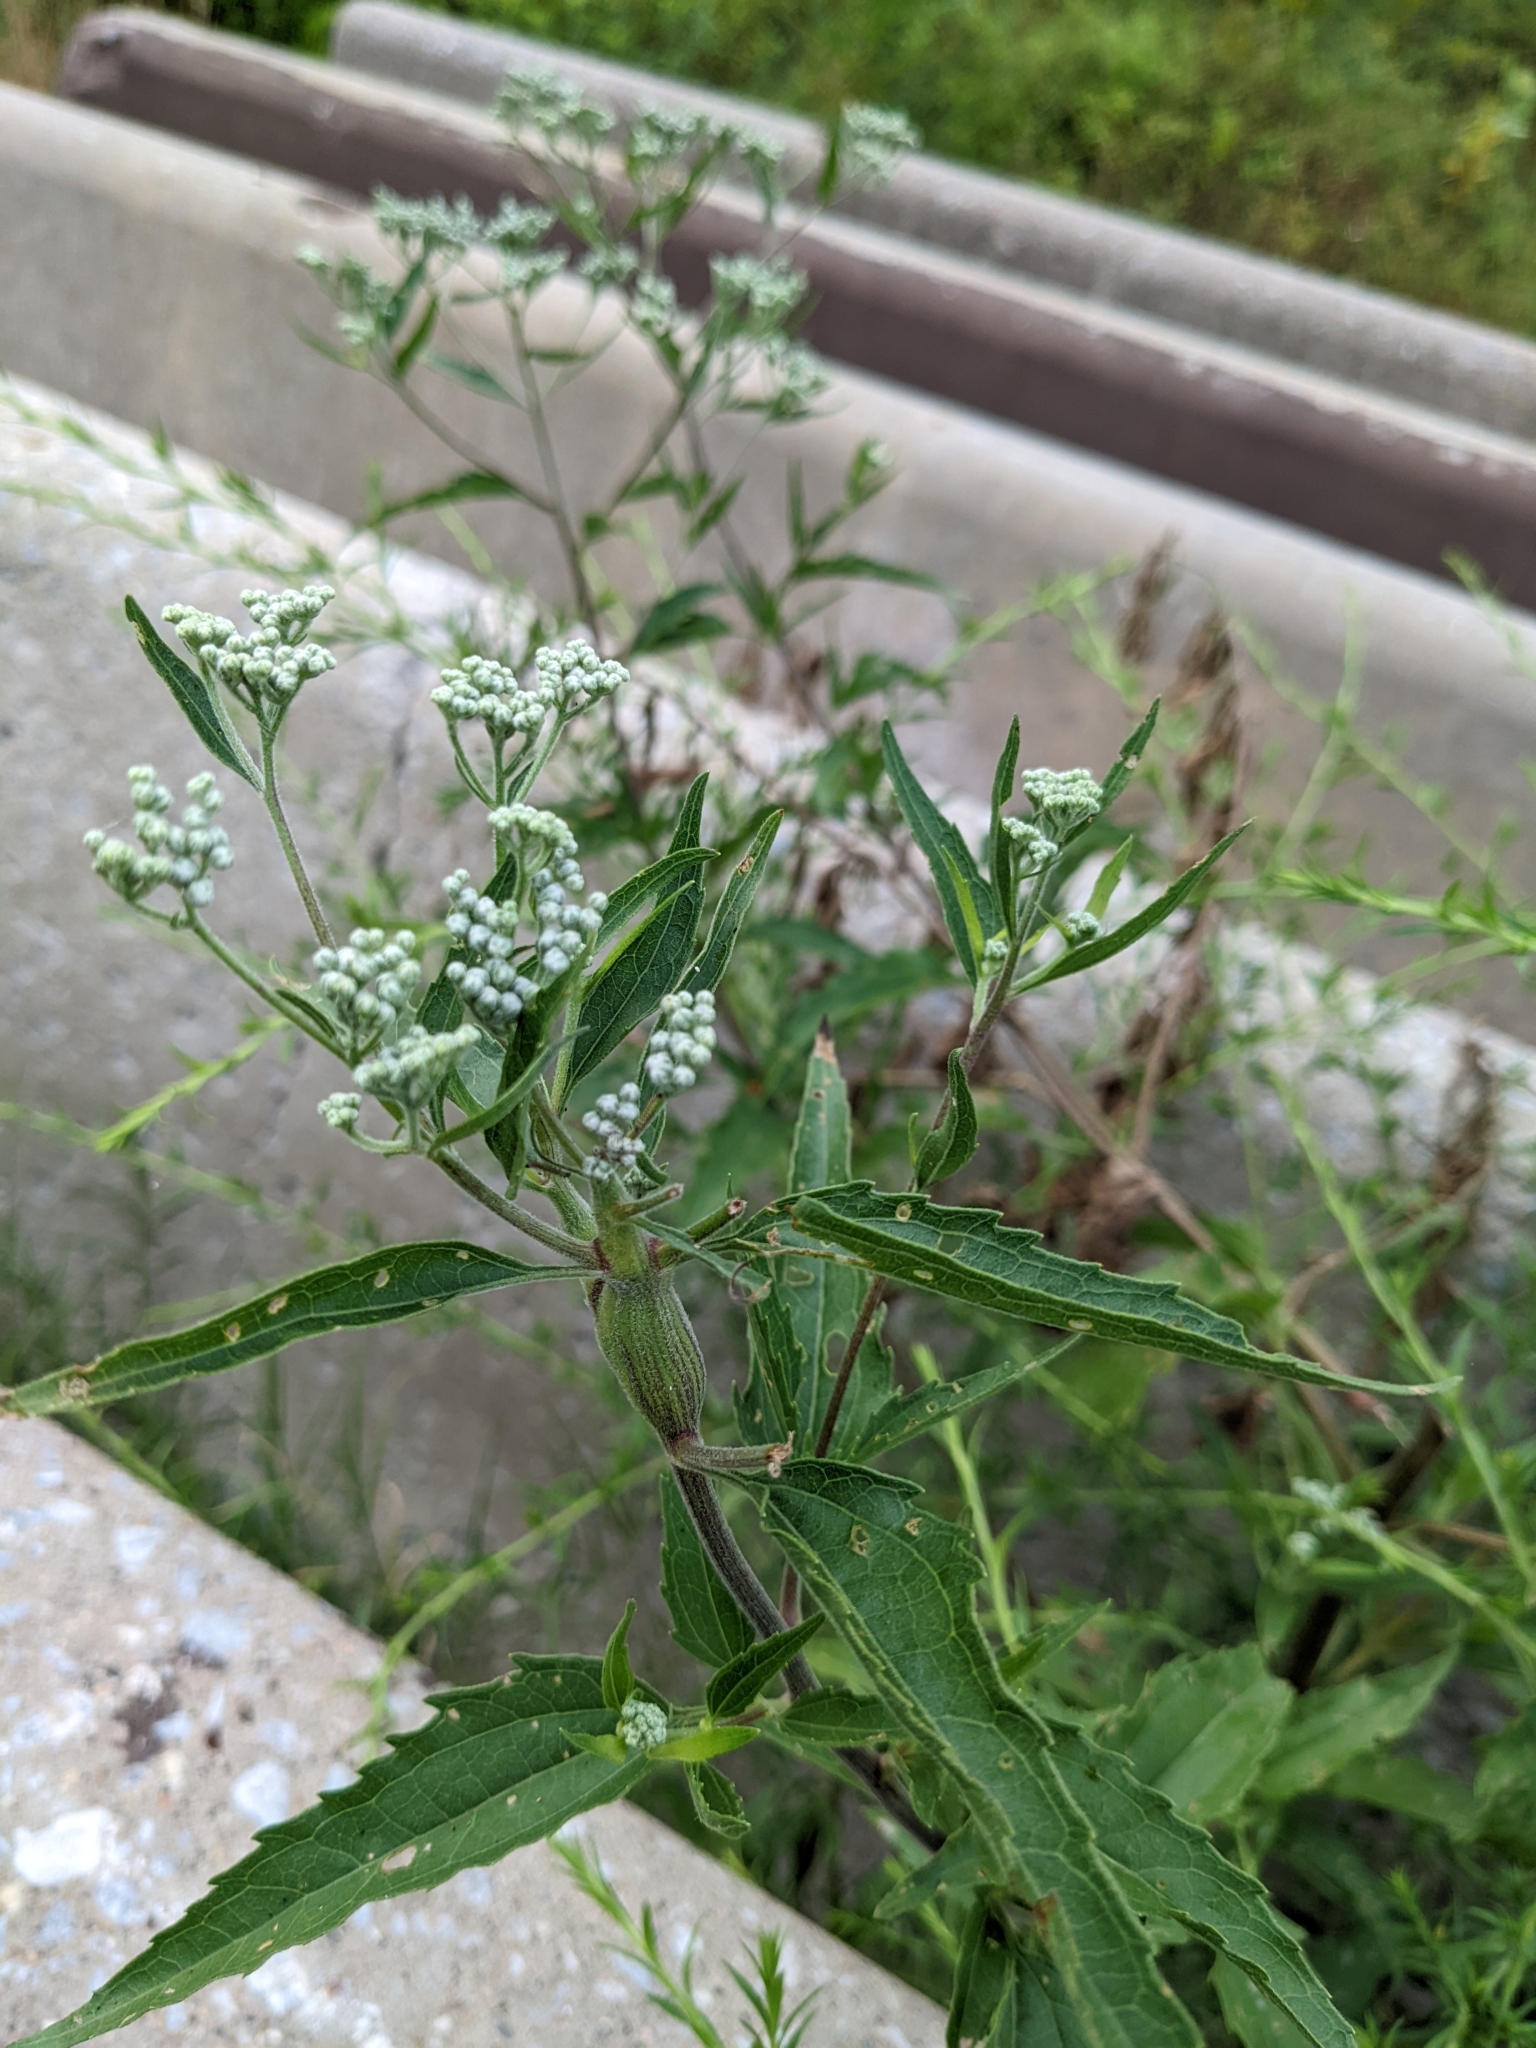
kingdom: Plantae
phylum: Tracheophyta
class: Magnoliopsida
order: Asterales
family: Asteraceae
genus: Eupatorium
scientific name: Eupatorium serotinum
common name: Late boneset
